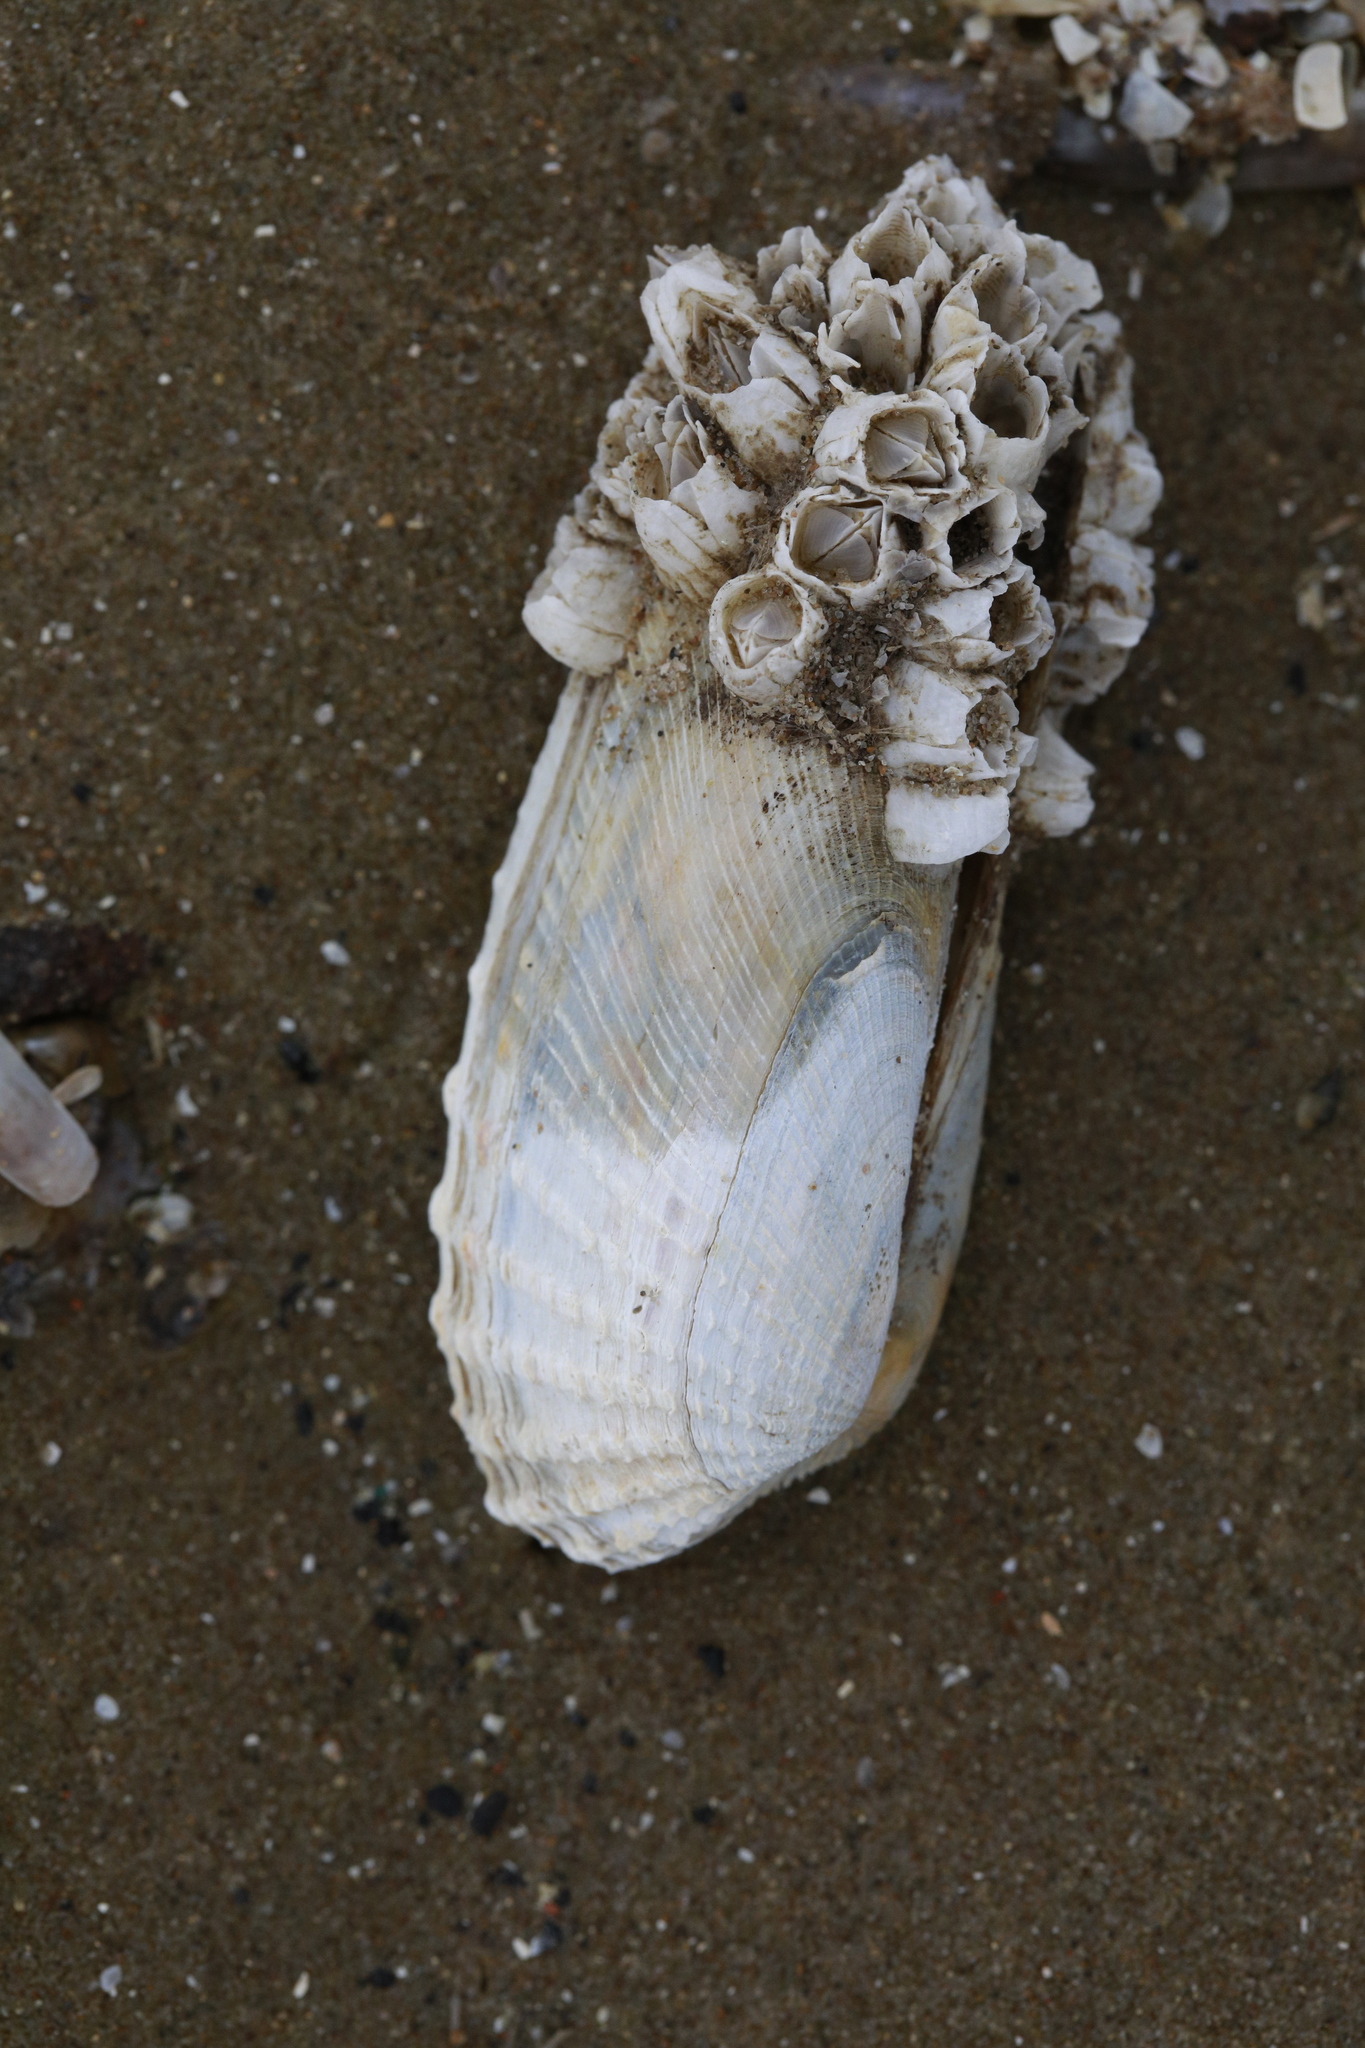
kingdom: Animalia
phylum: Mollusca
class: Bivalvia
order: Venerida
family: Veneridae
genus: Petricolaria
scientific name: Petricolaria pholadiformis
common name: American piddock
